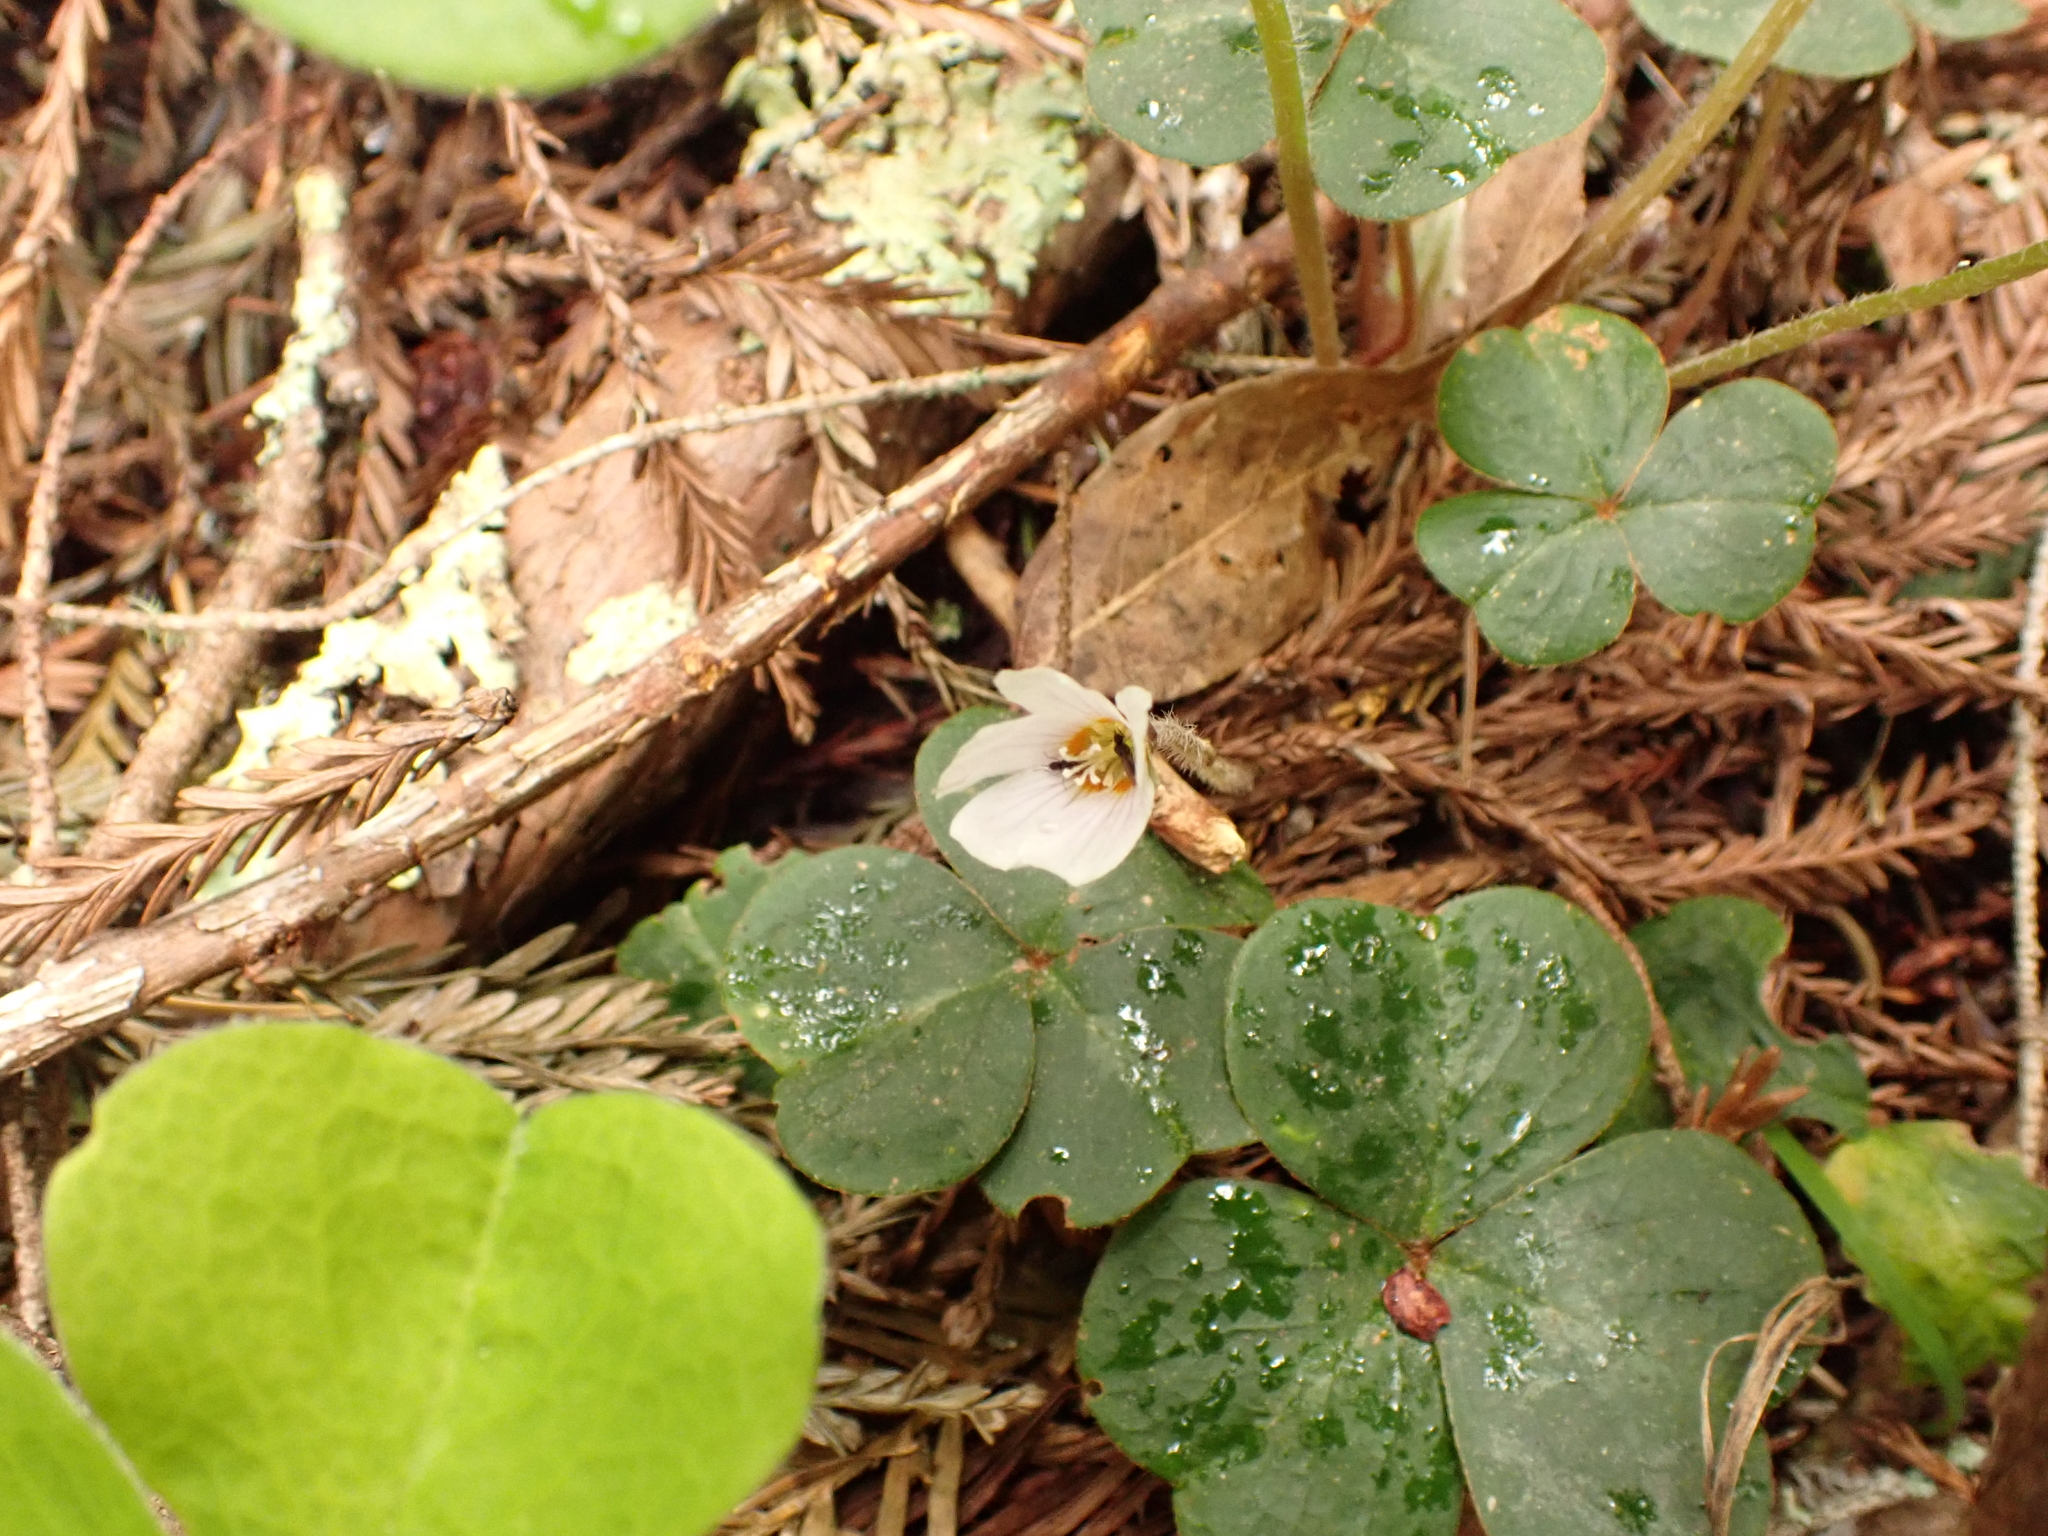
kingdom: Plantae
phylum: Tracheophyta
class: Magnoliopsida
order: Oxalidales
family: Oxalidaceae
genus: Oxalis
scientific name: Oxalis oregana
